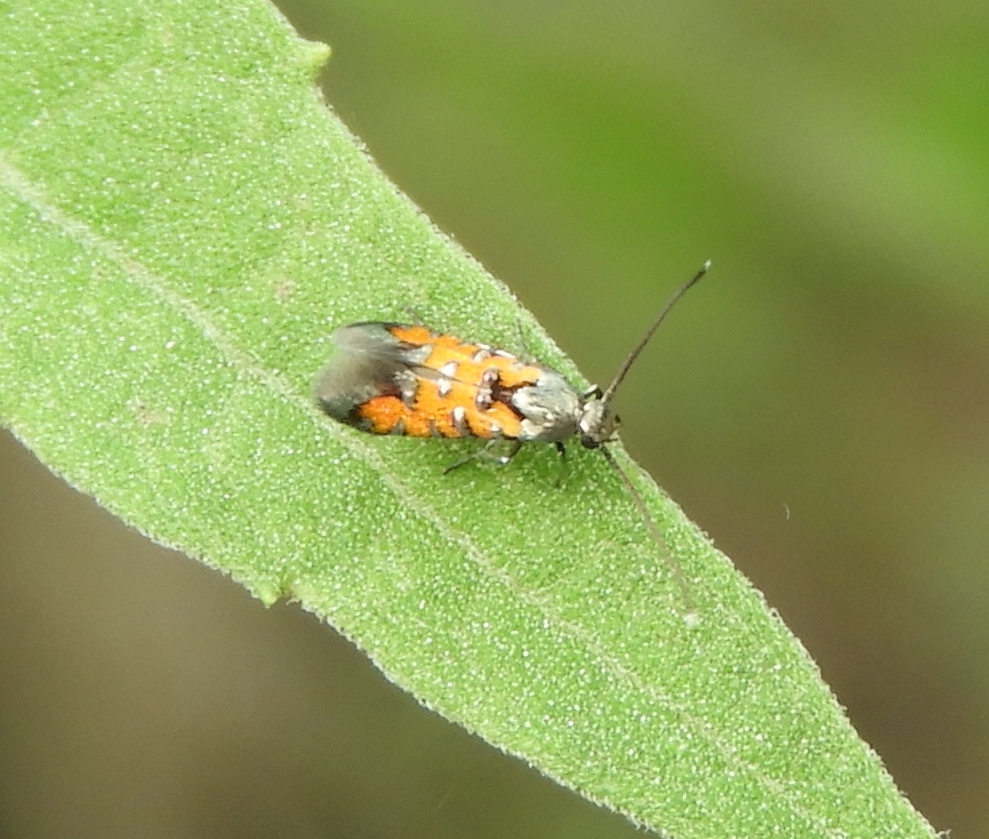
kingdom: Animalia
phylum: Arthropoda
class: Insecta
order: Lepidoptera
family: Heliodinidae
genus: Heliodines
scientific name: Heliodines
